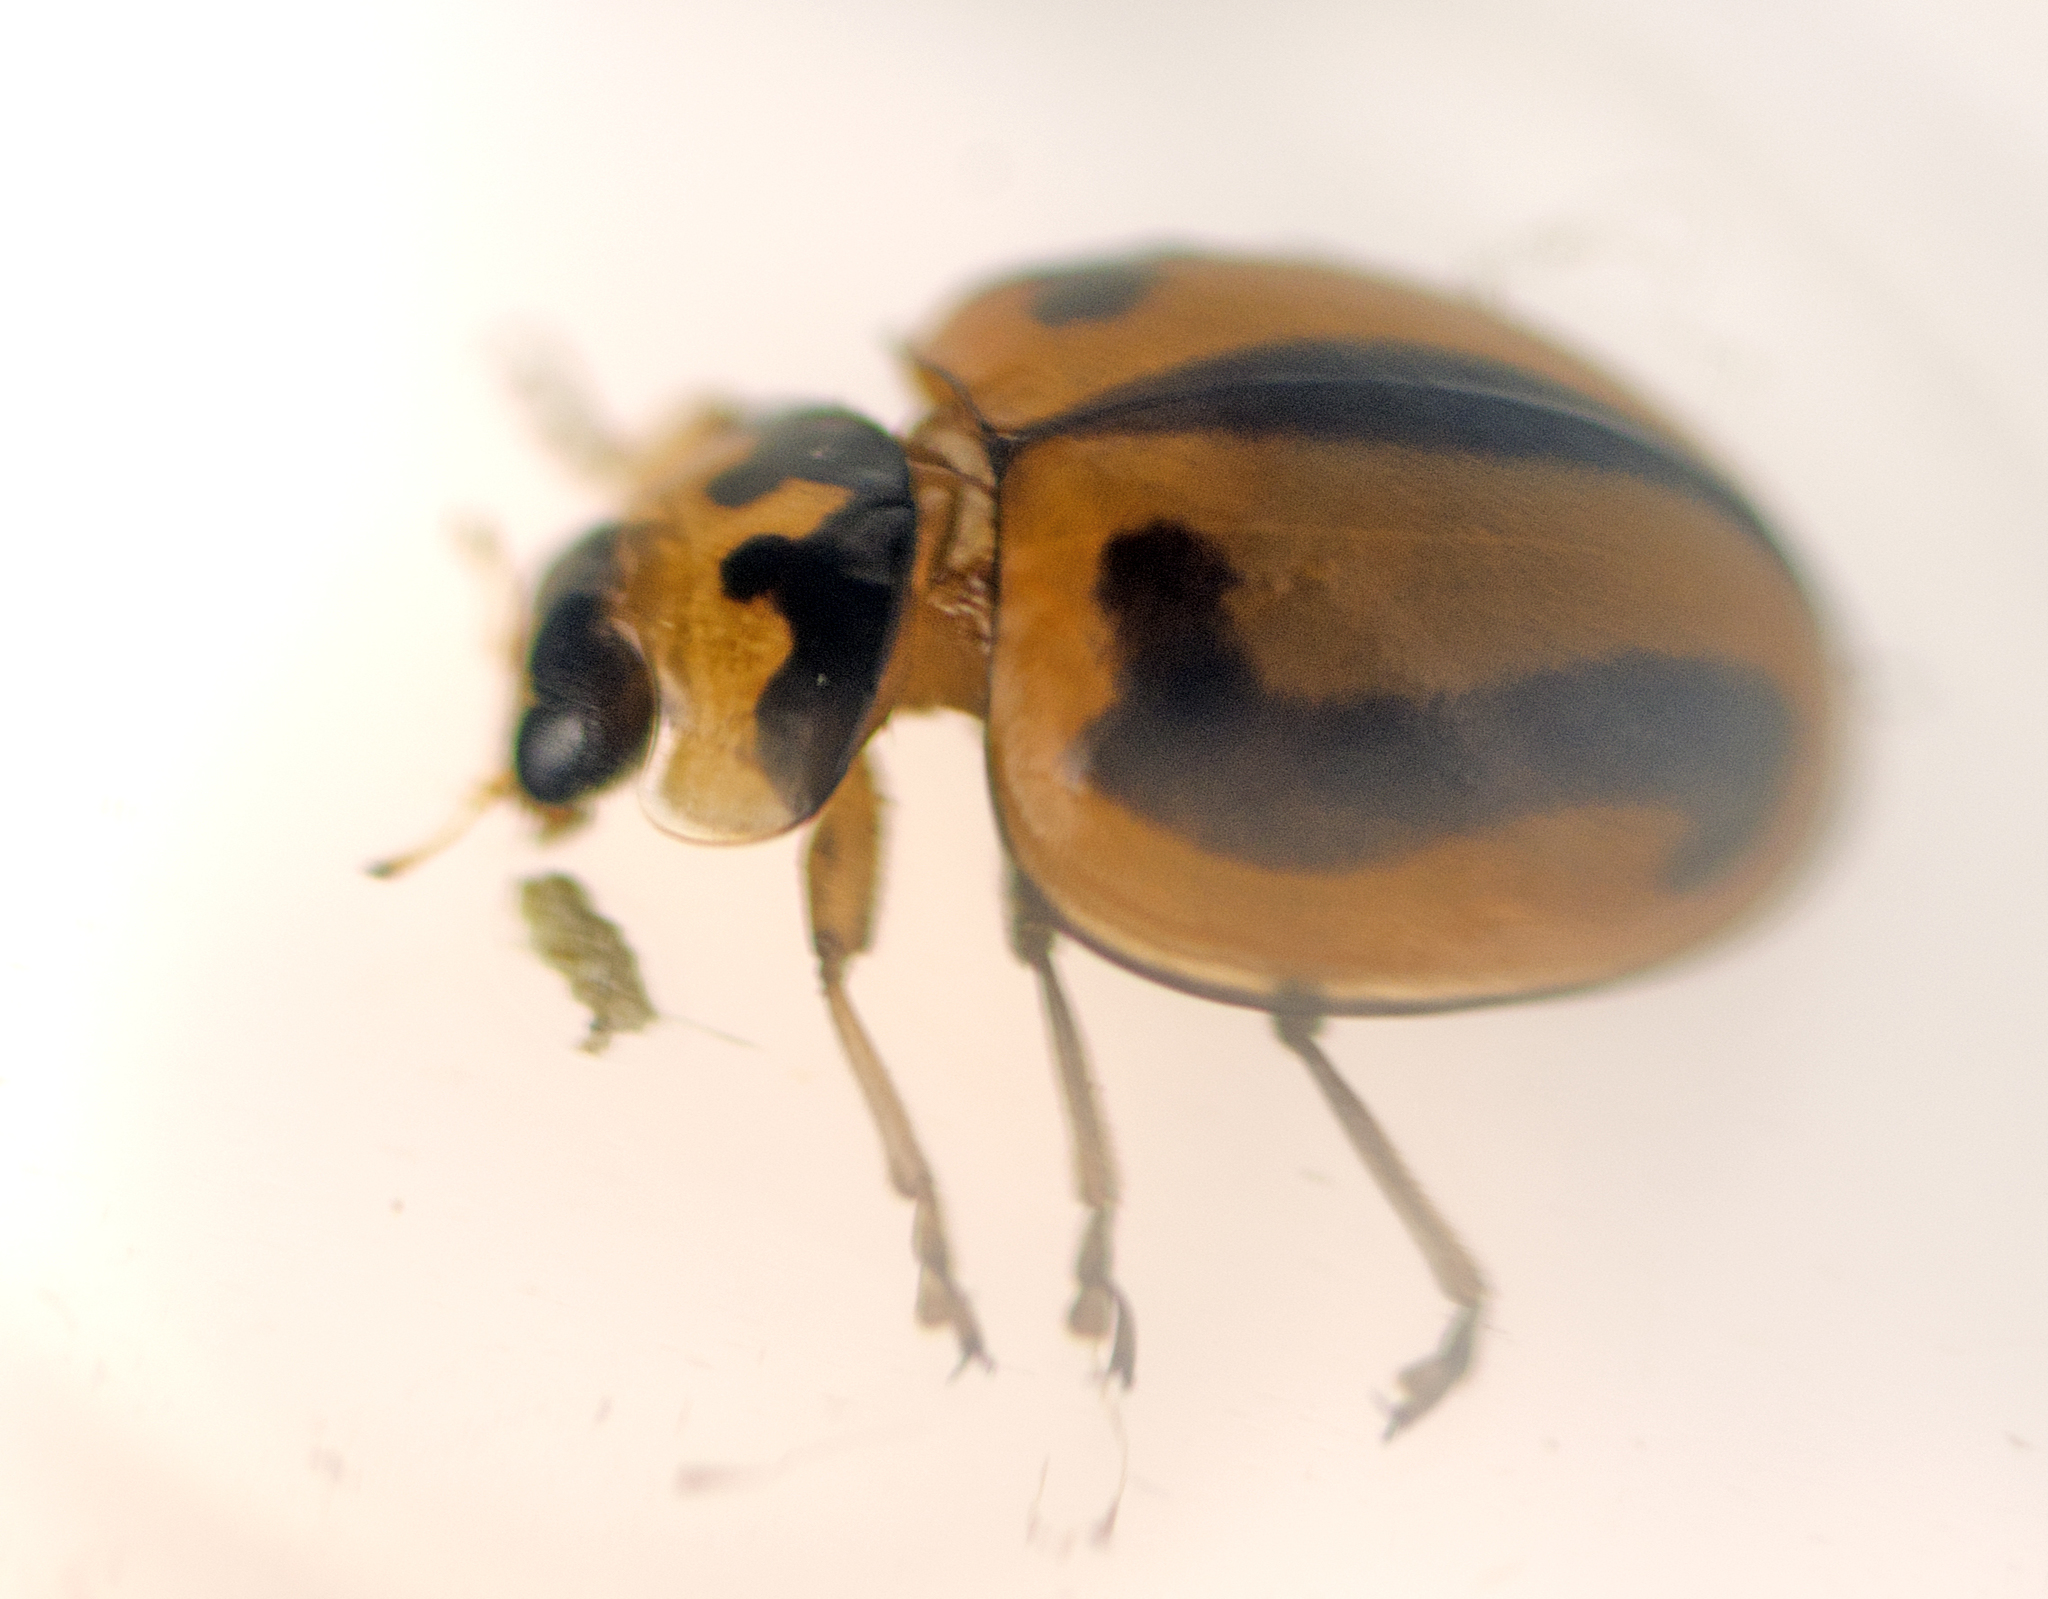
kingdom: Animalia
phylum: Arthropoda
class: Insecta
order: Coleoptera
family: Coccinellidae
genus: Micraspis
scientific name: Micraspis frenata
